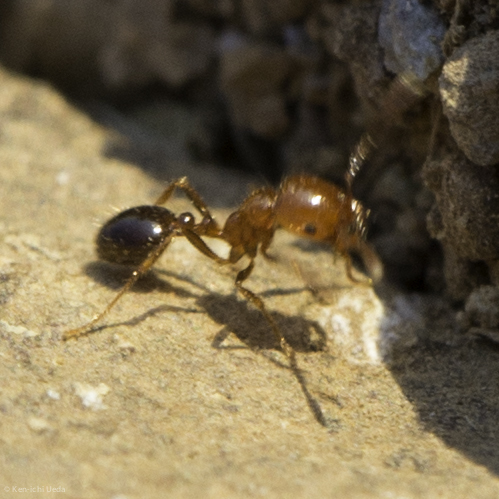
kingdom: Animalia
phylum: Arthropoda
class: Insecta
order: Hymenoptera
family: Formicidae
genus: Solenopsis
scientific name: Solenopsis xyloni
